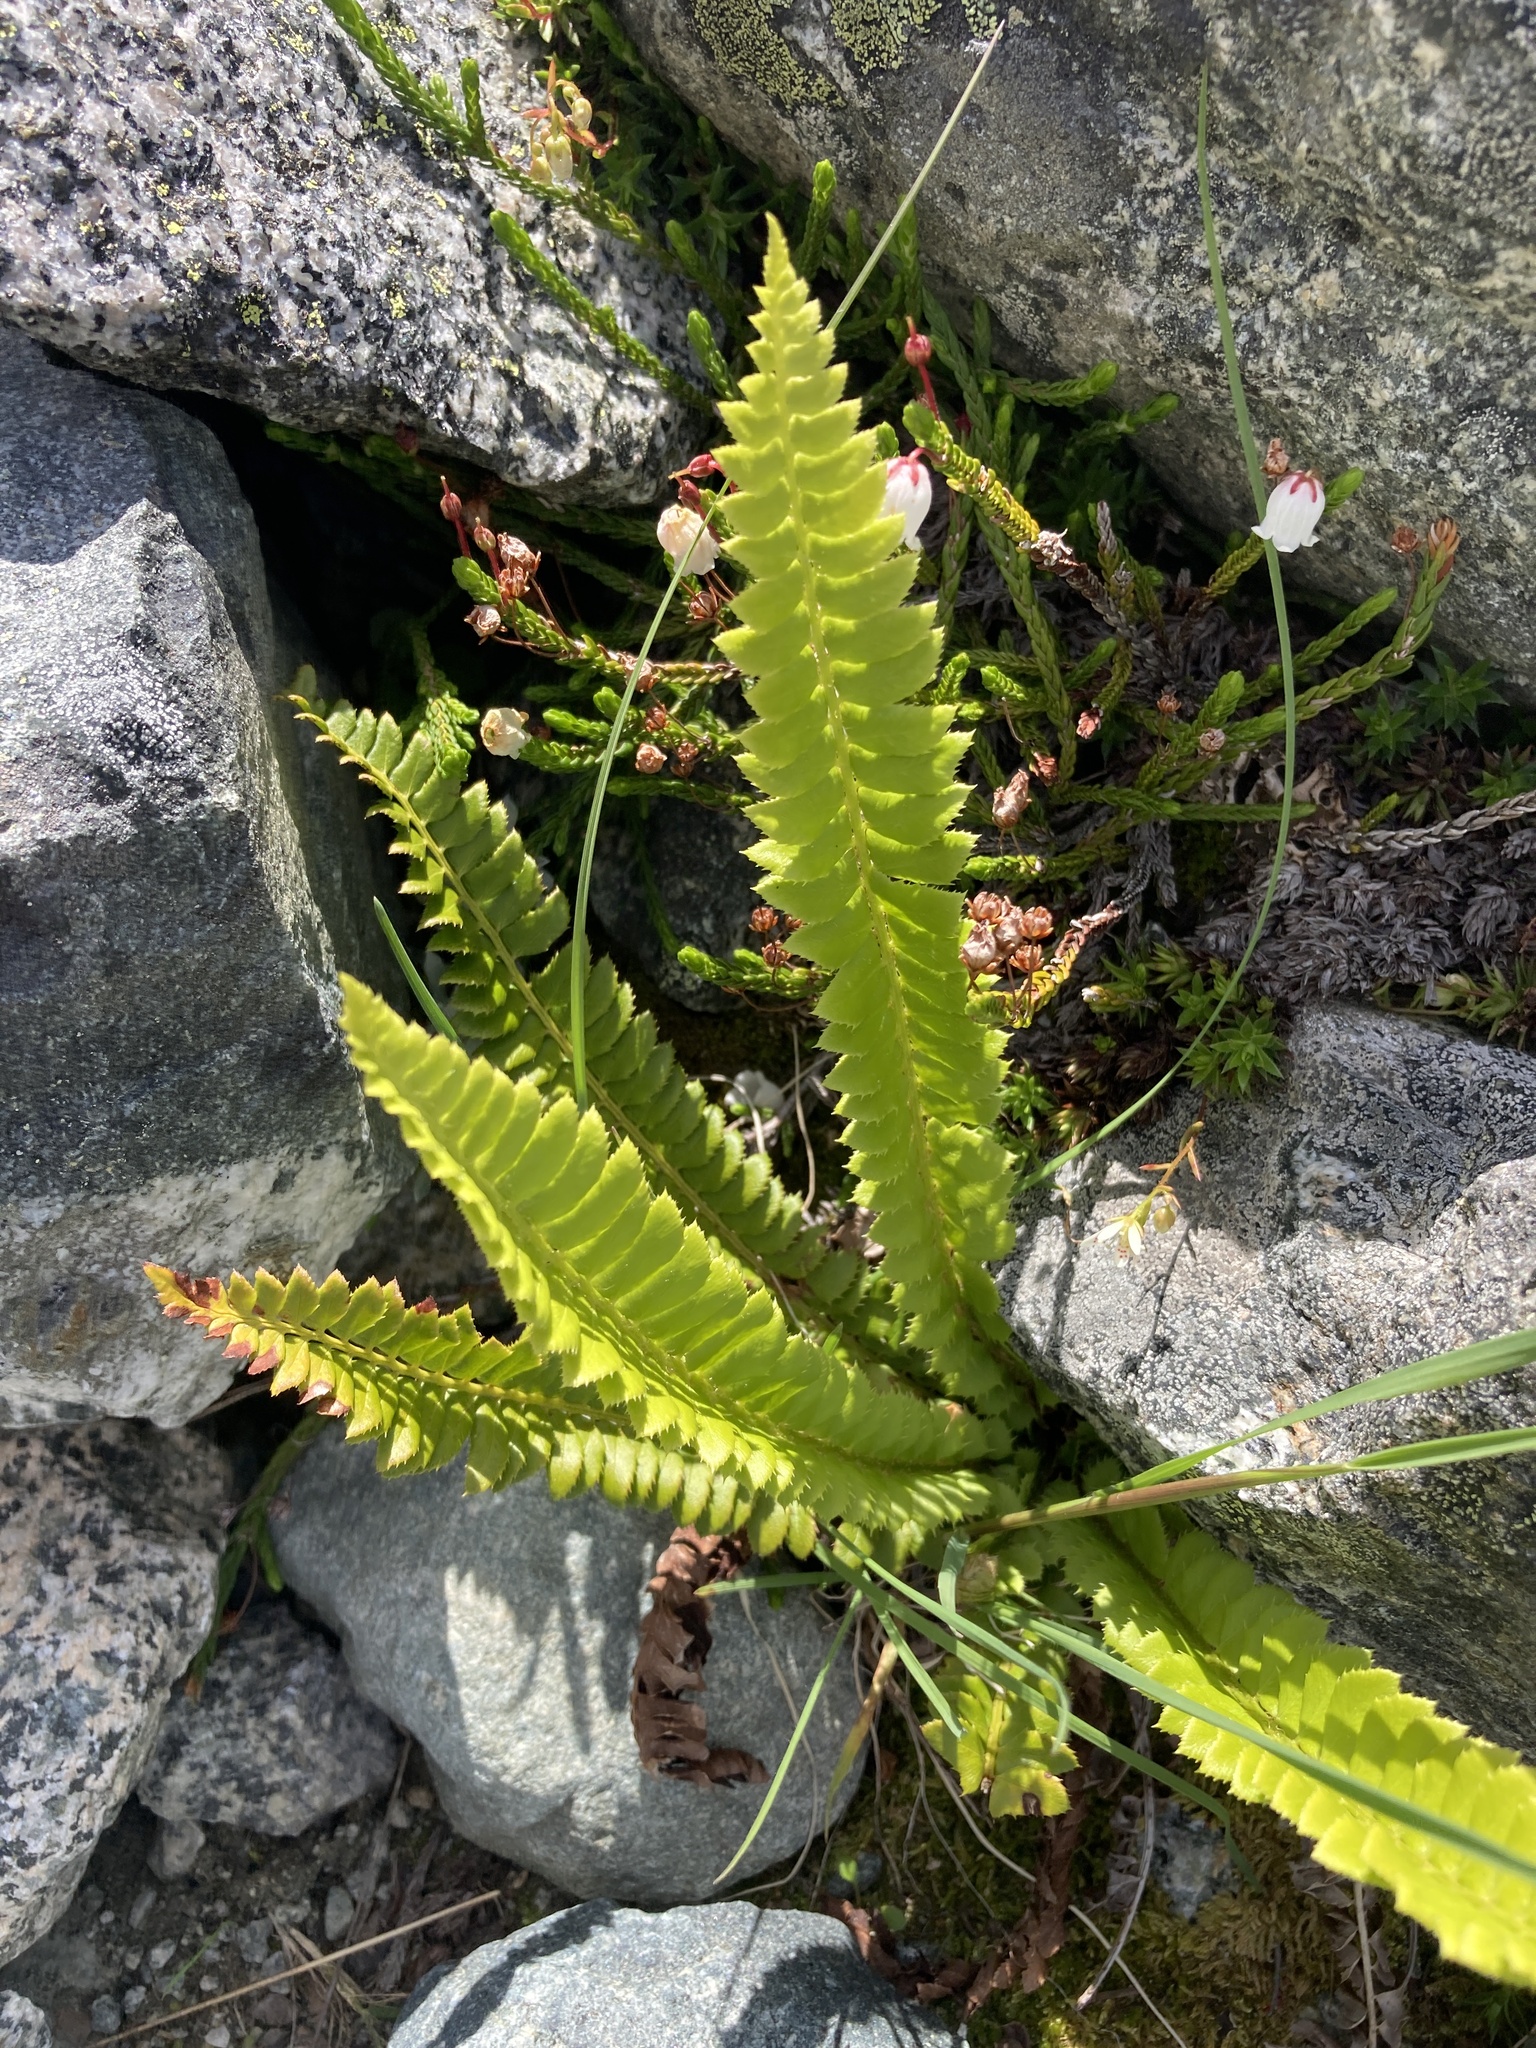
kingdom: Plantae
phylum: Tracheophyta
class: Polypodiopsida
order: Polypodiales
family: Dryopteridaceae
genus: Polystichum
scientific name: Polystichum lonchitis
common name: Holly fern
